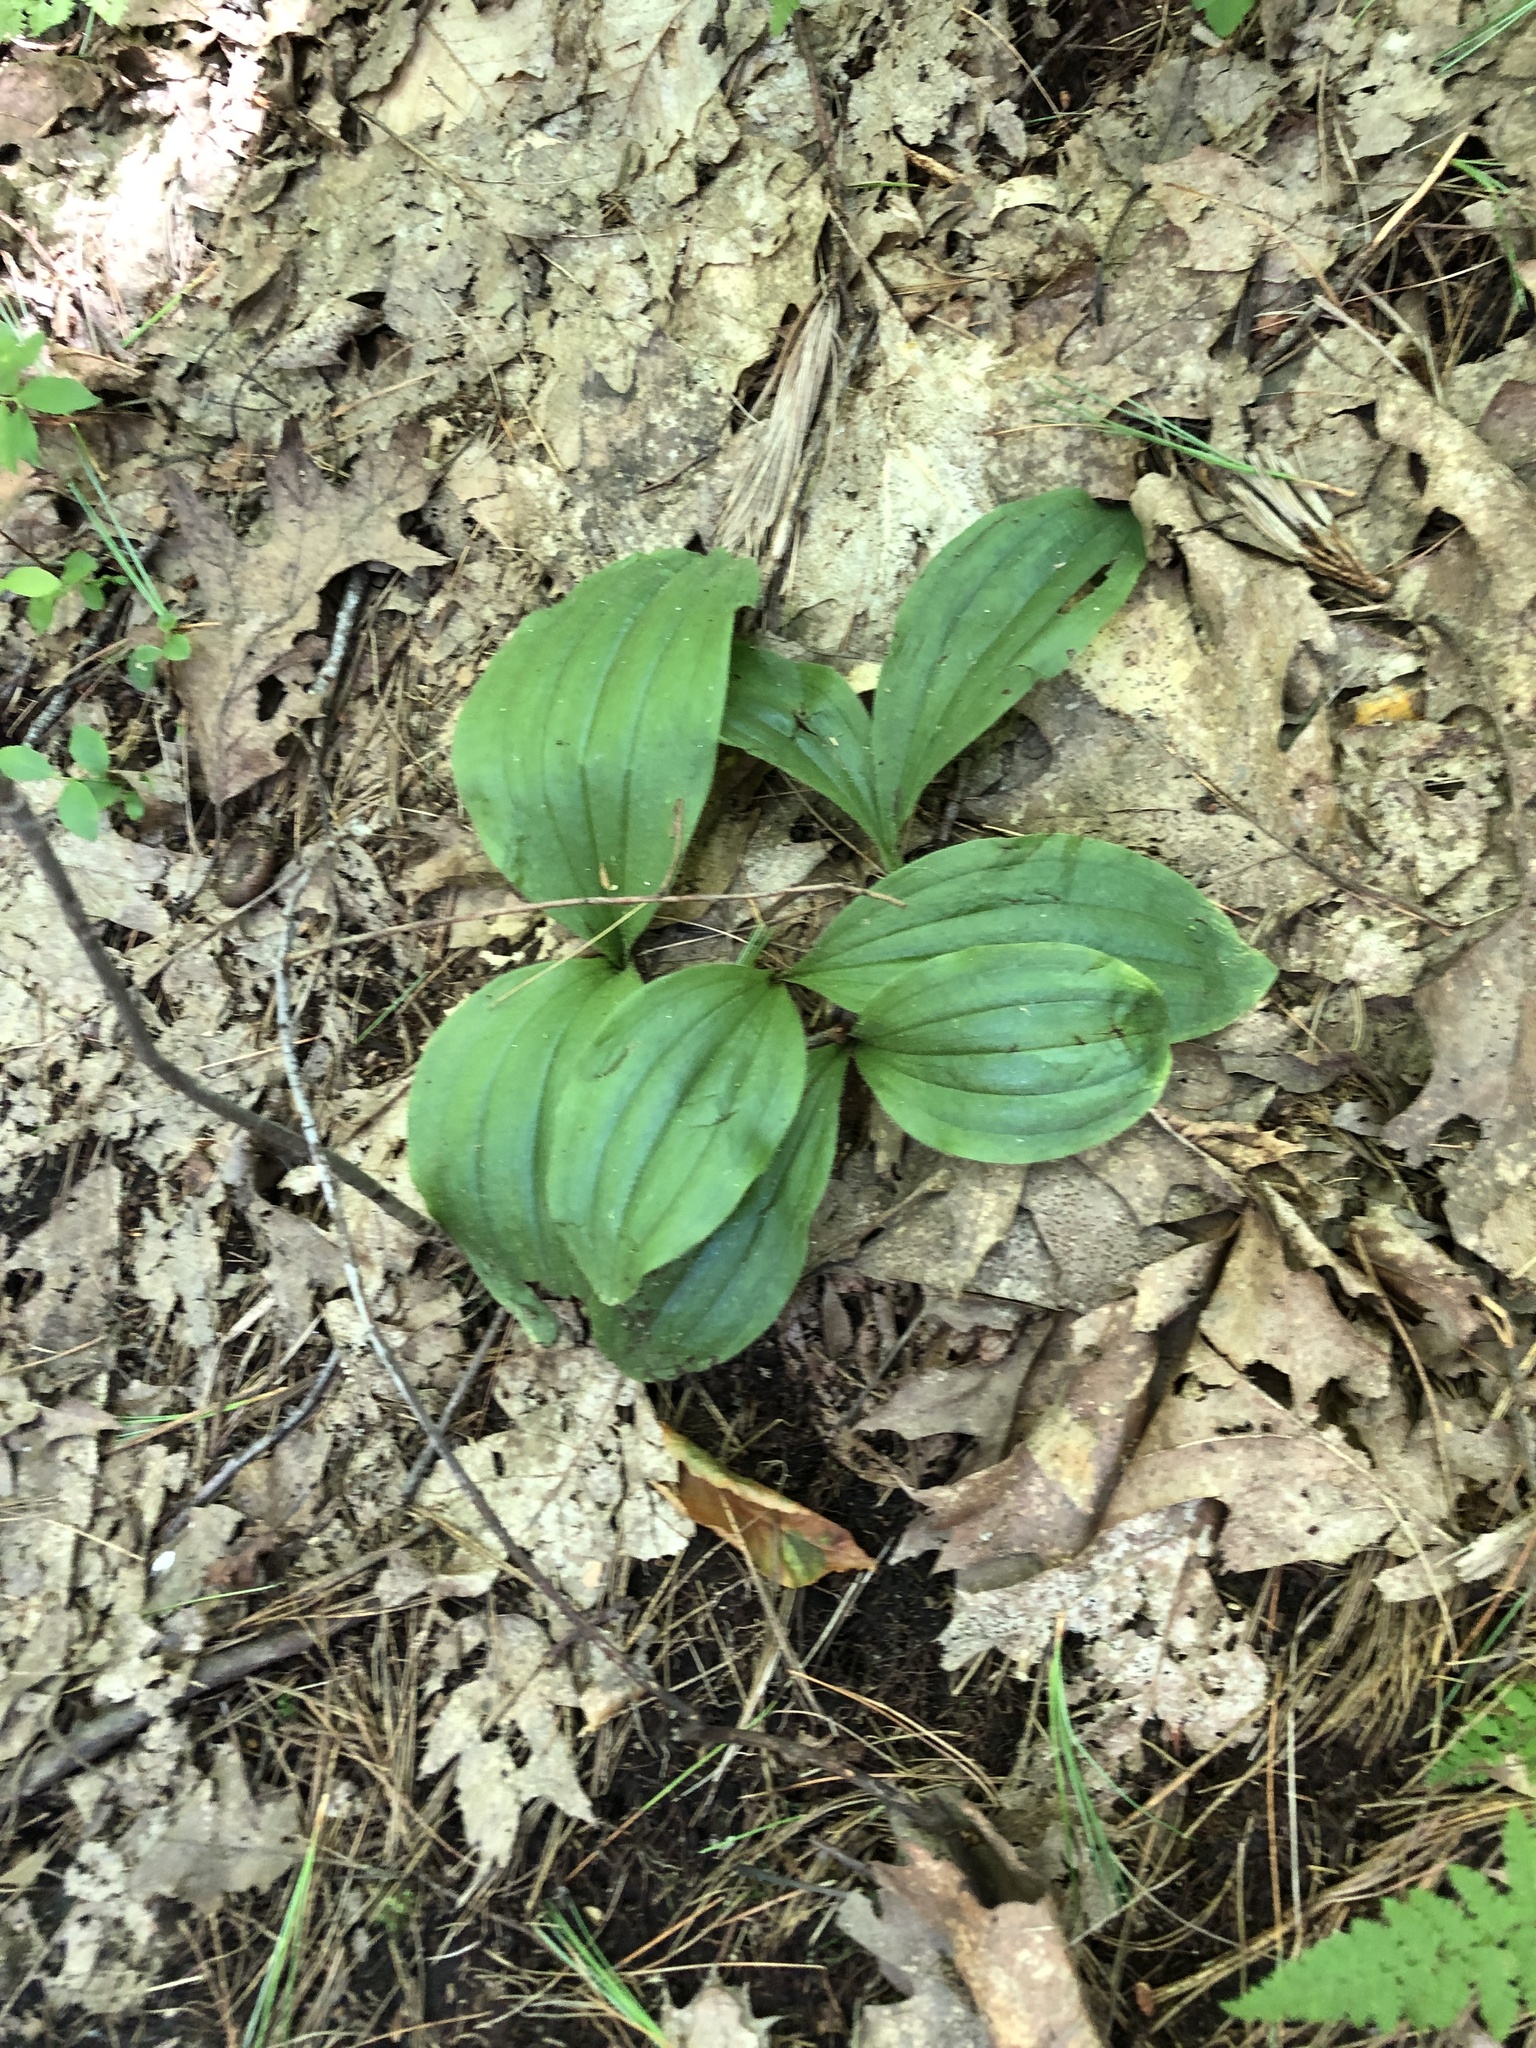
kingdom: Plantae
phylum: Tracheophyta
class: Liliopsida
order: Asparagales
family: Orchidaceae
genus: Cypripedium
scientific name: Cypripedium acaule
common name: Pink lady's-slipper
